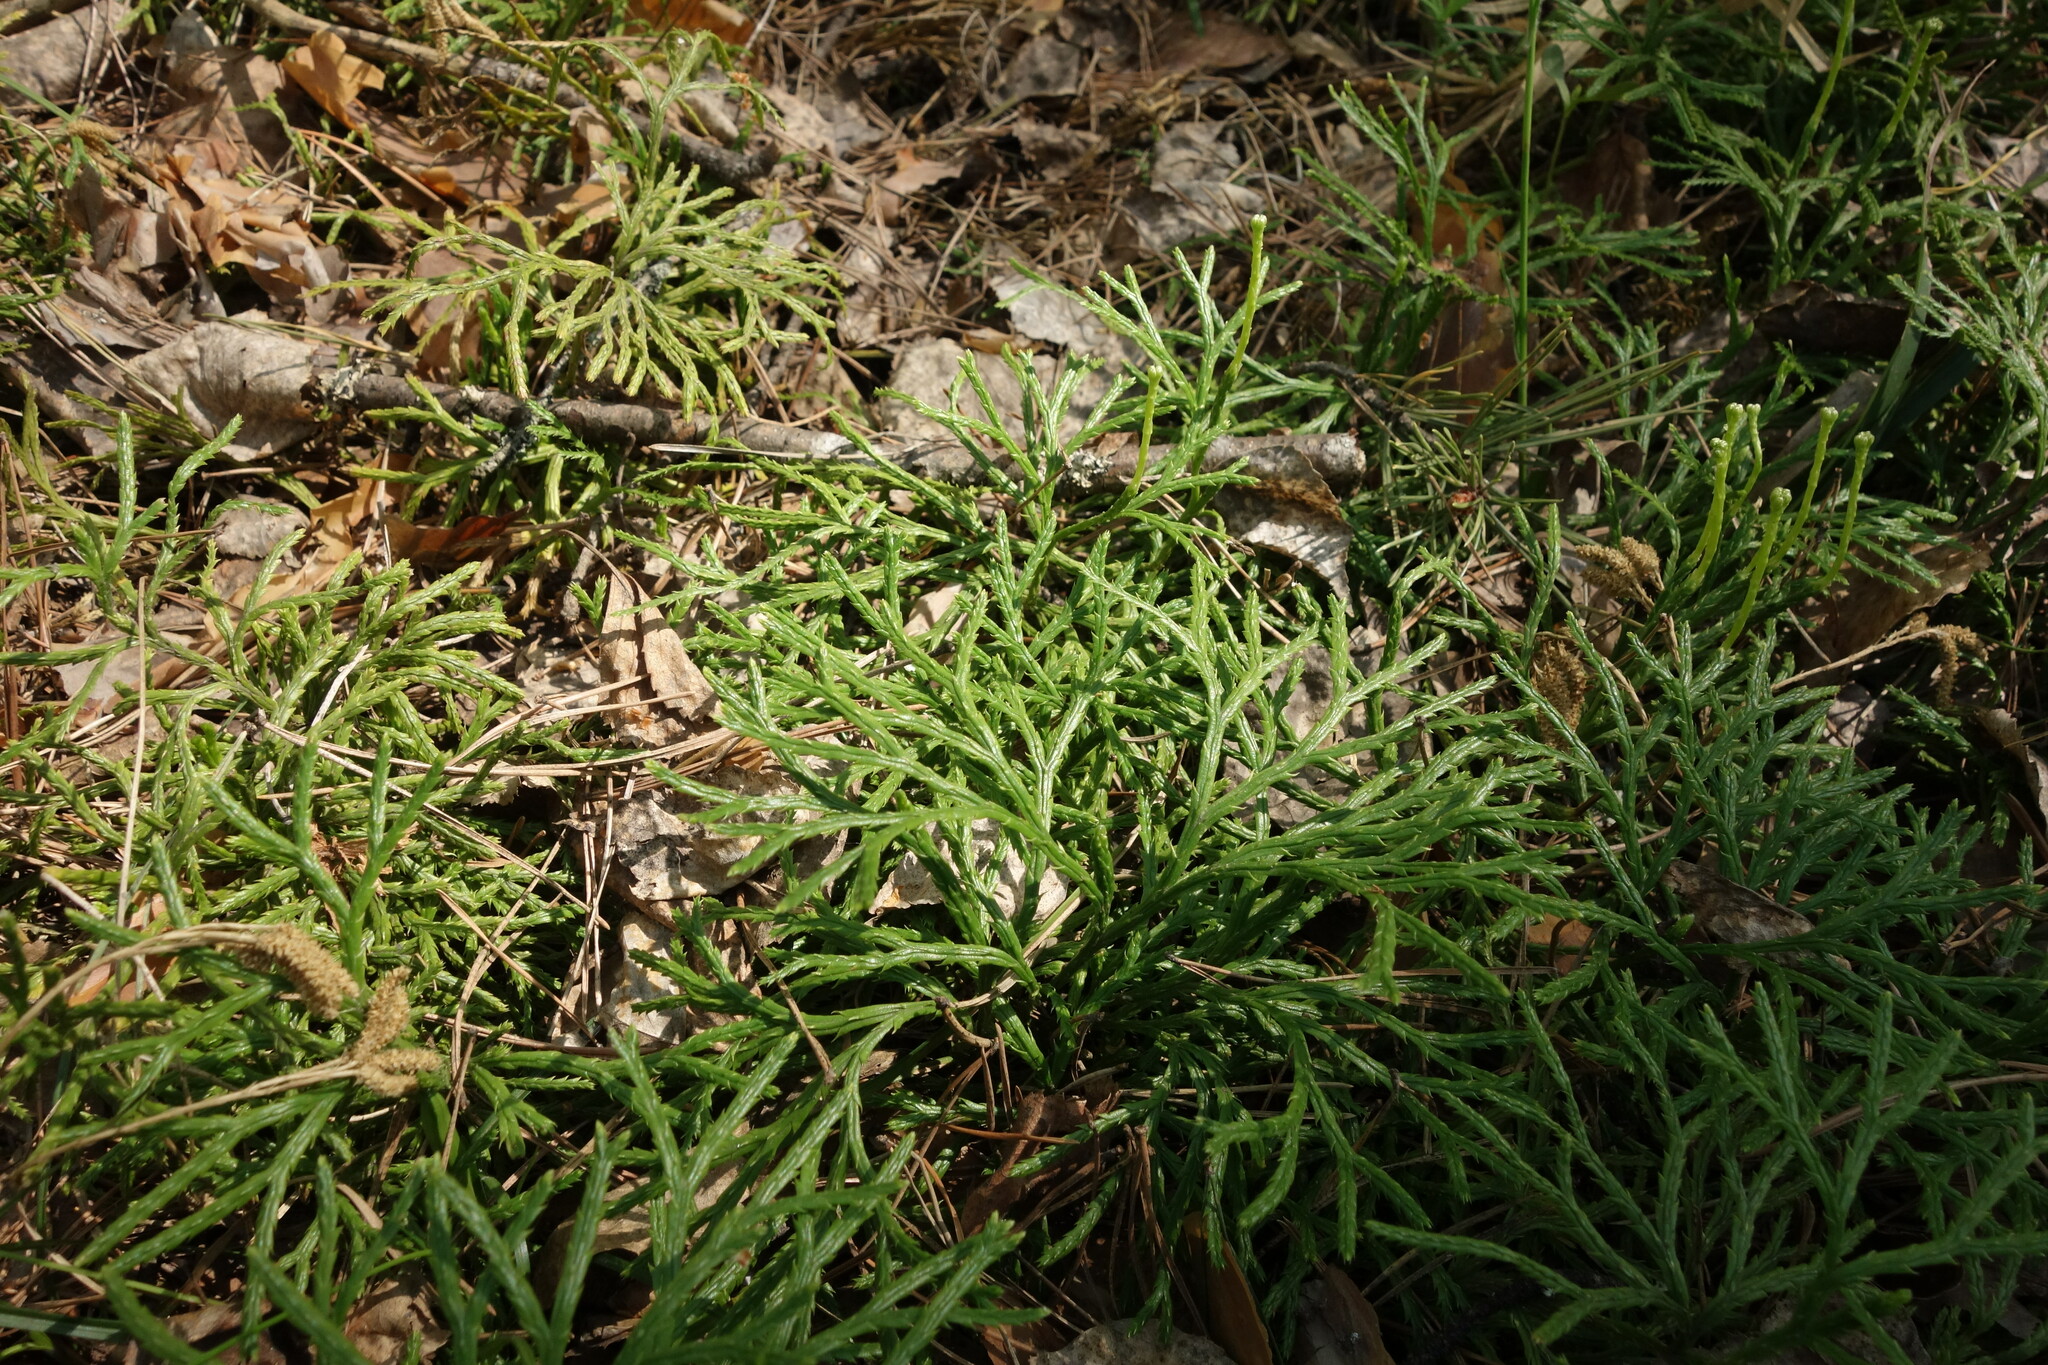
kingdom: Plantae
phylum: Tracheophyta
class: Lycopodiopsida
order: Lycopodiales
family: Lycopodiaceae
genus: Diphasiastrum
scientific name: Diphasiastrum complanatum
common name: Northern running-pine
